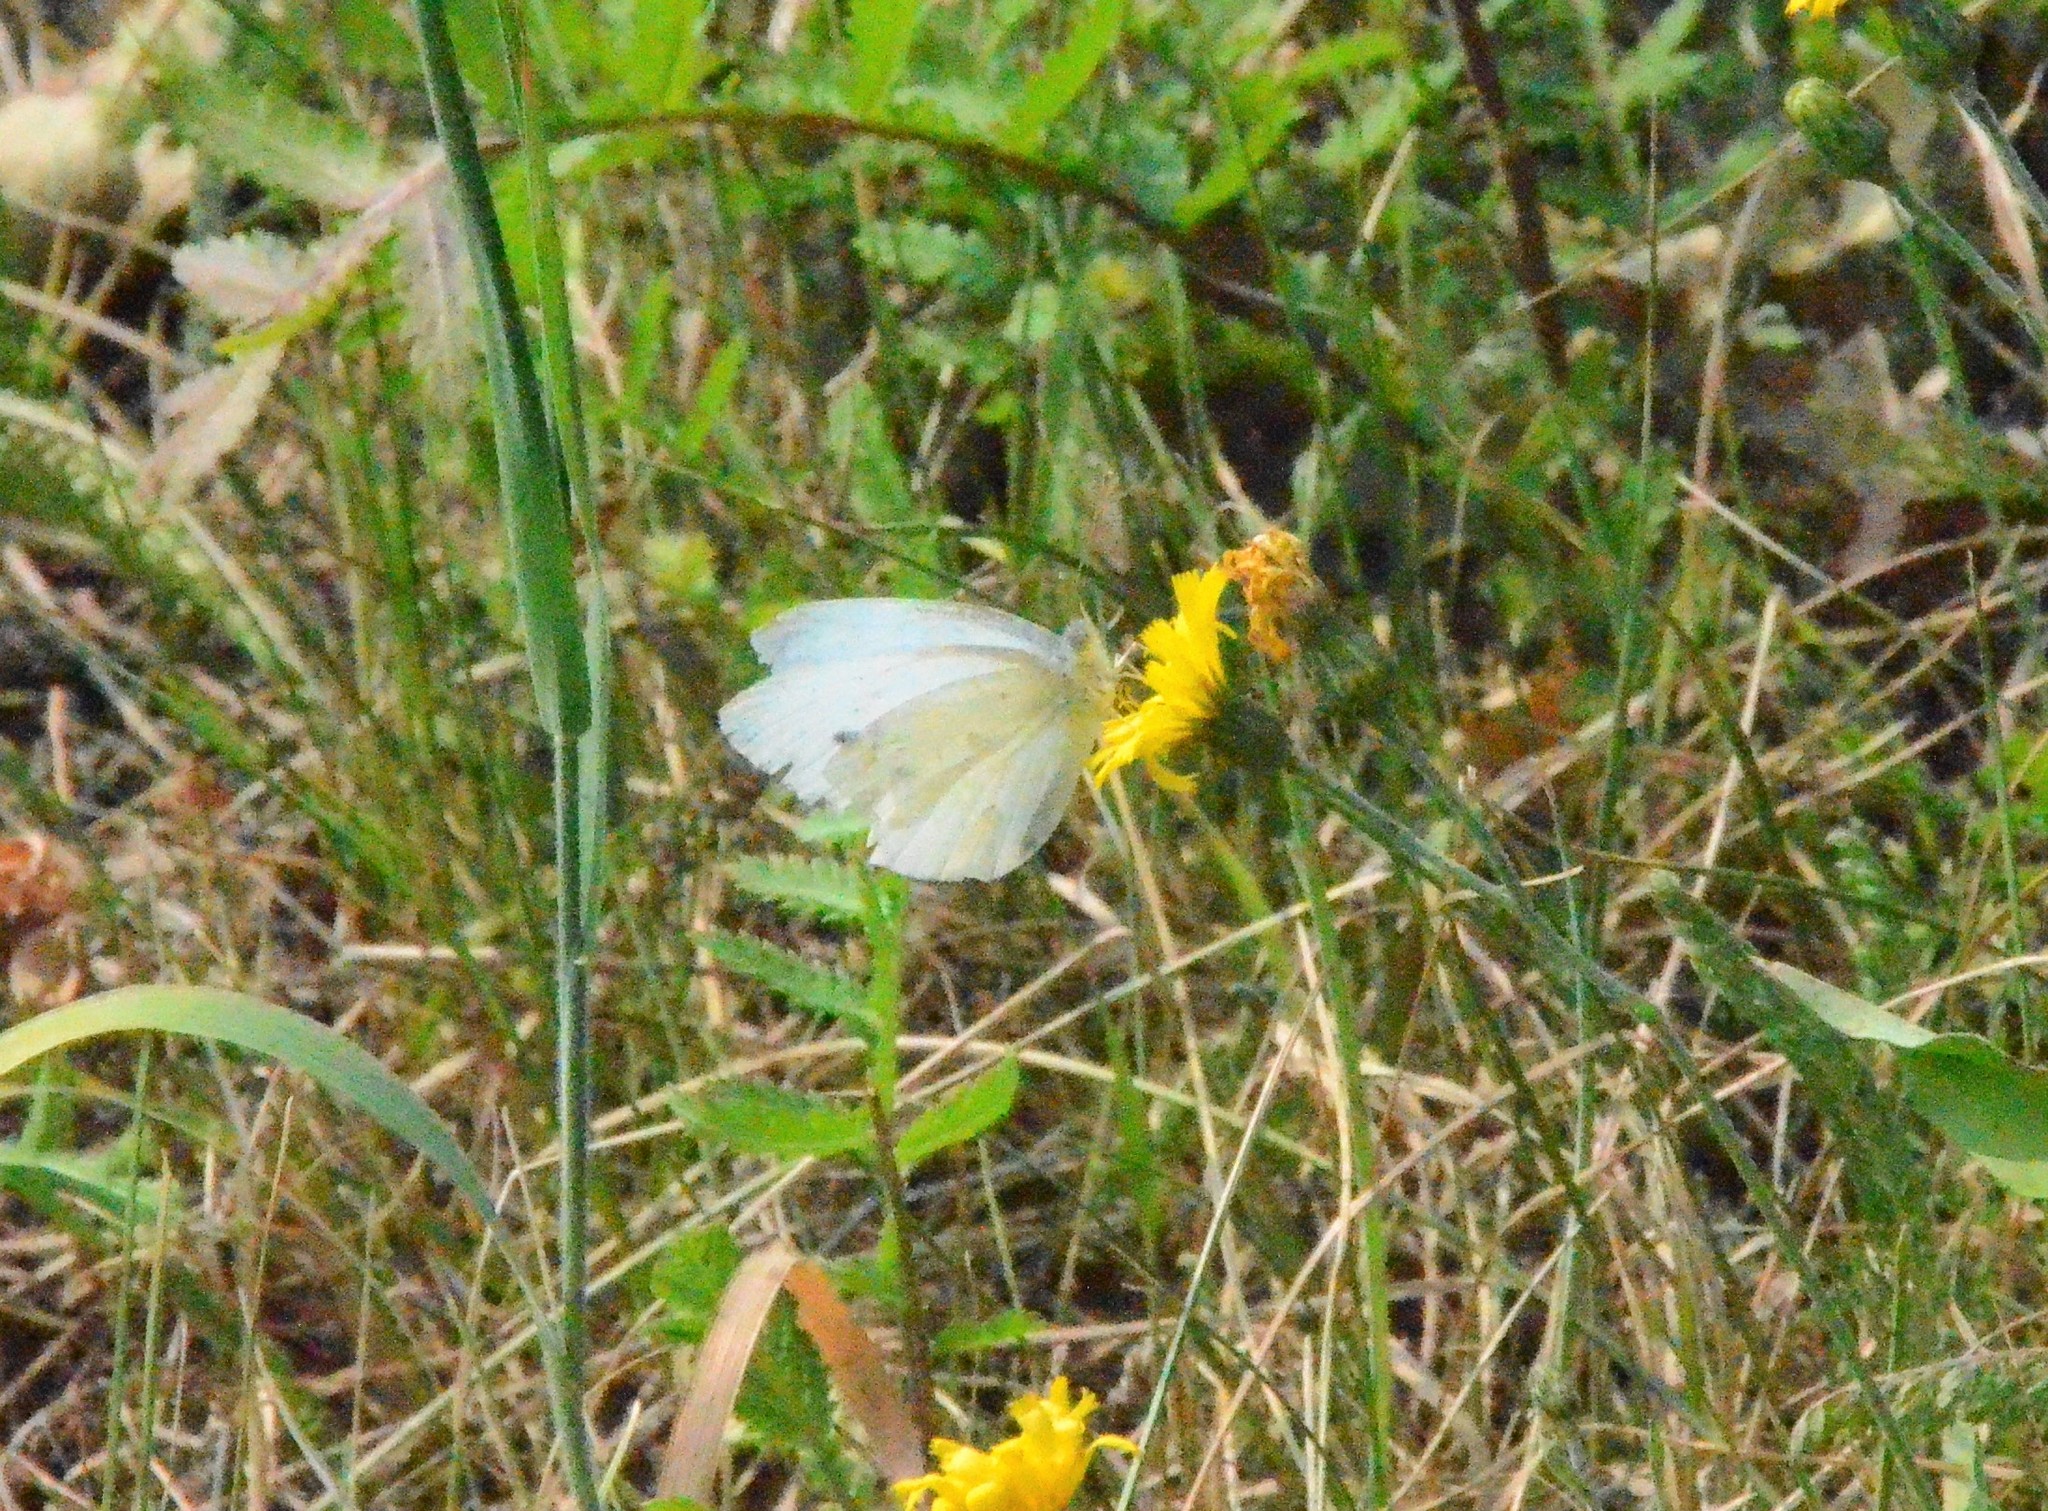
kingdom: Animalia
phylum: Arthropoda
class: Insecta
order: Lepidoptera
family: Pieridae
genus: Pieris
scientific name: Pieris rapae
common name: Small white
